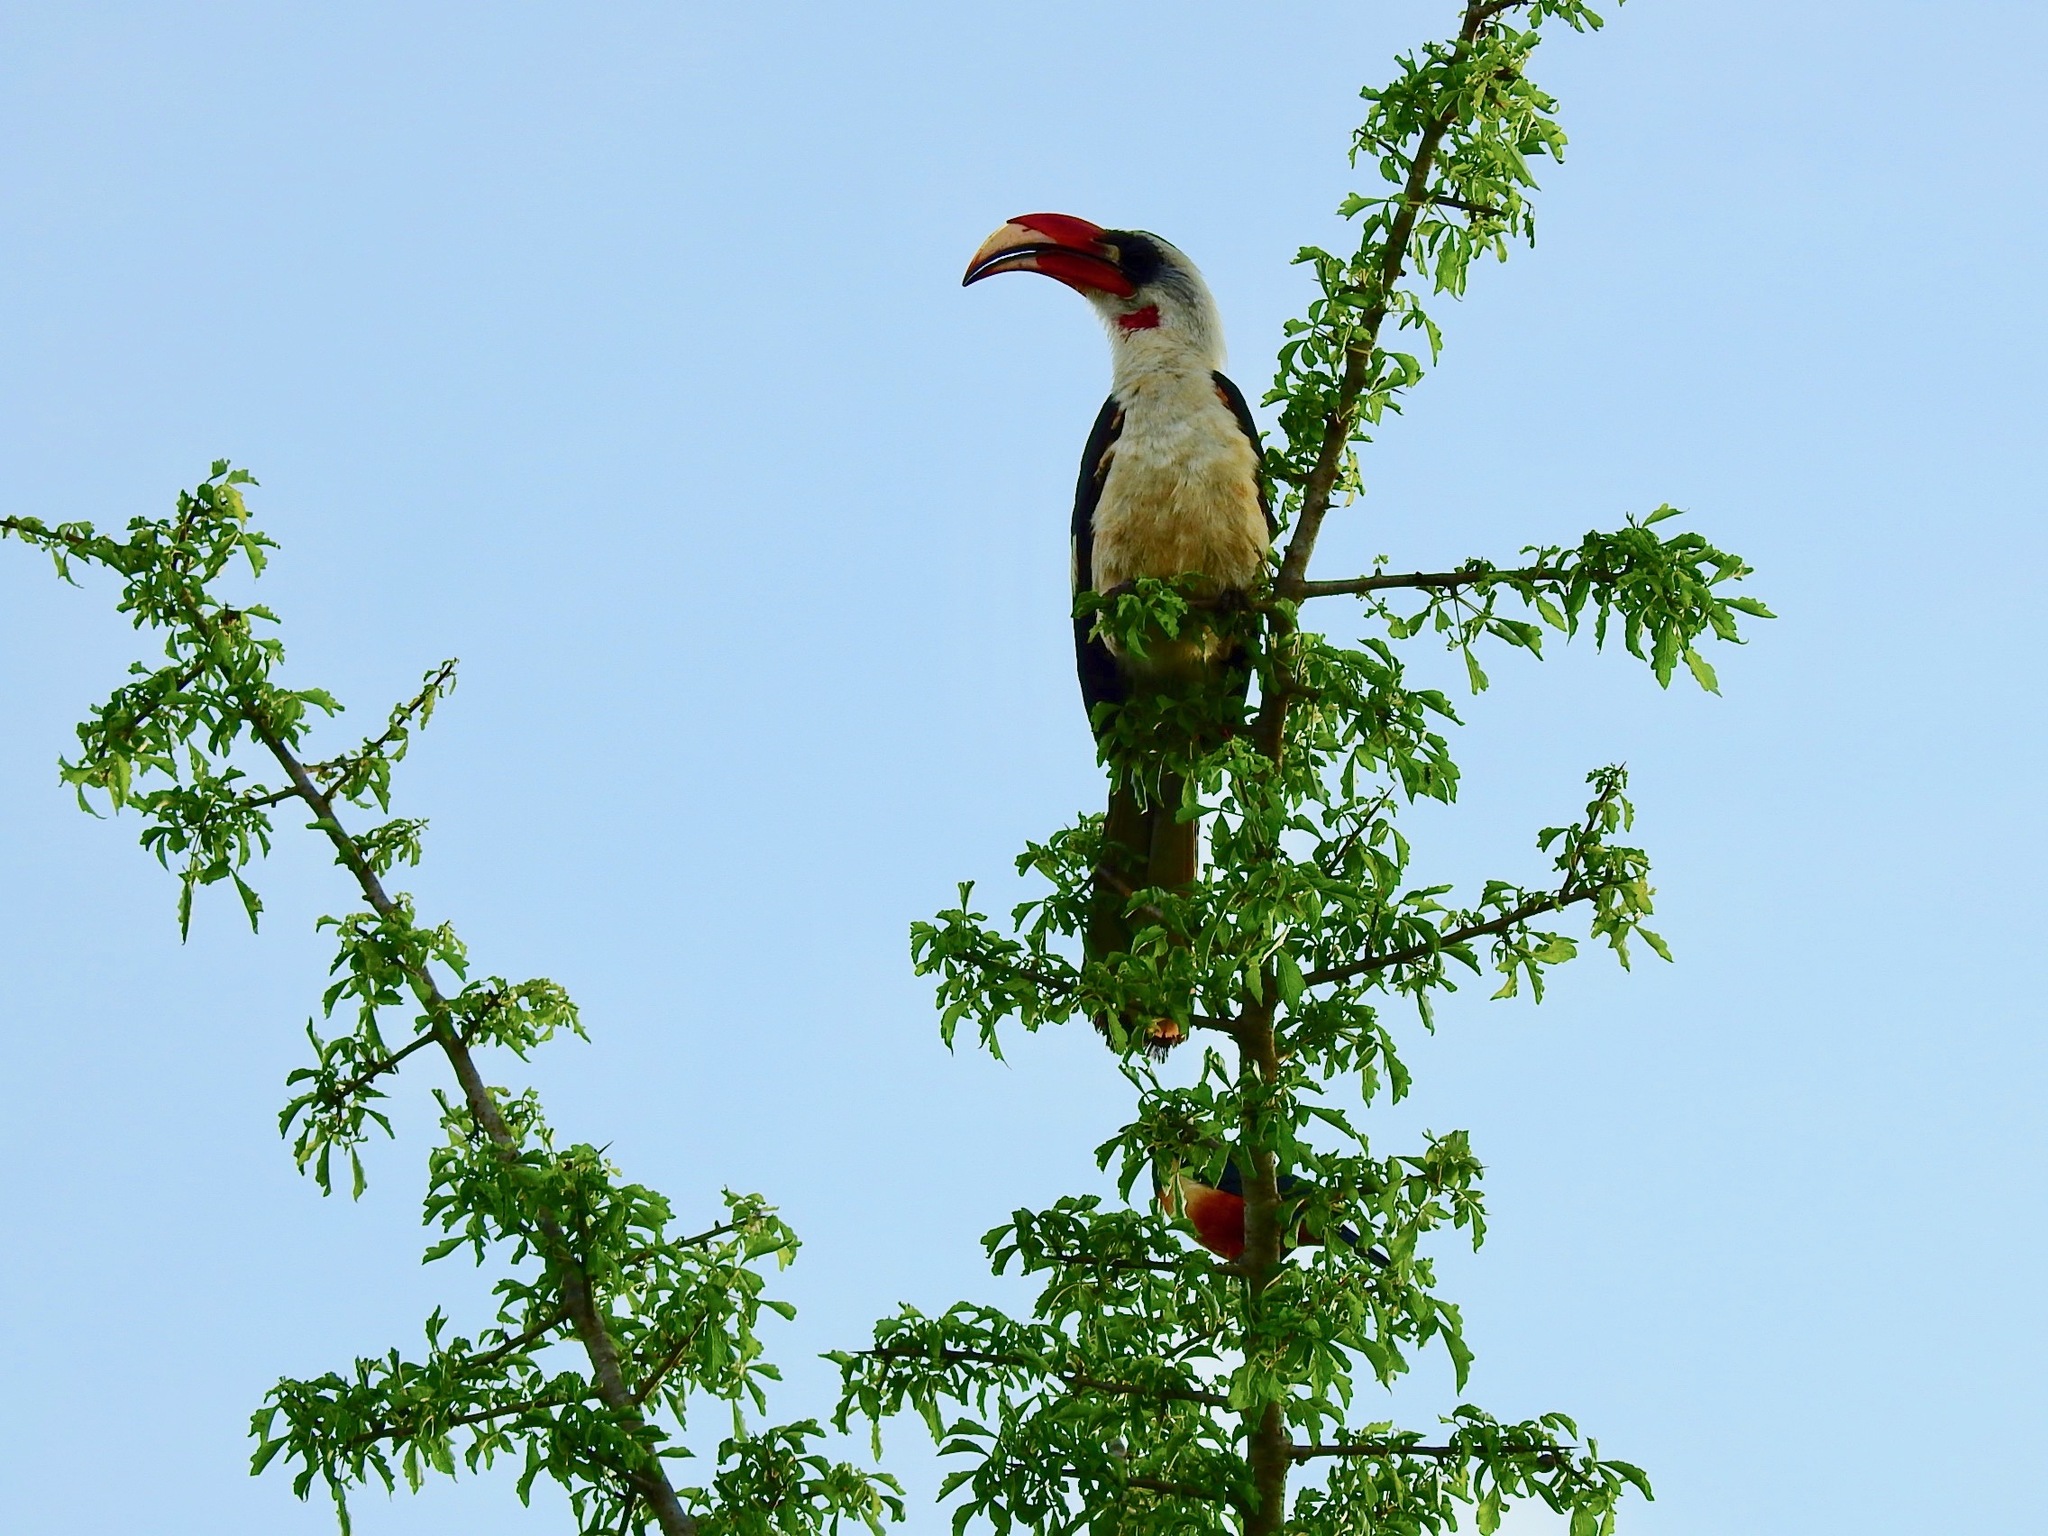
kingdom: Animalia
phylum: Chordata
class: Aves
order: Bucerotiformes
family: Bucerotidae
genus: Tockus
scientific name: Tockus deckeni
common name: Von der decken's hornbill
